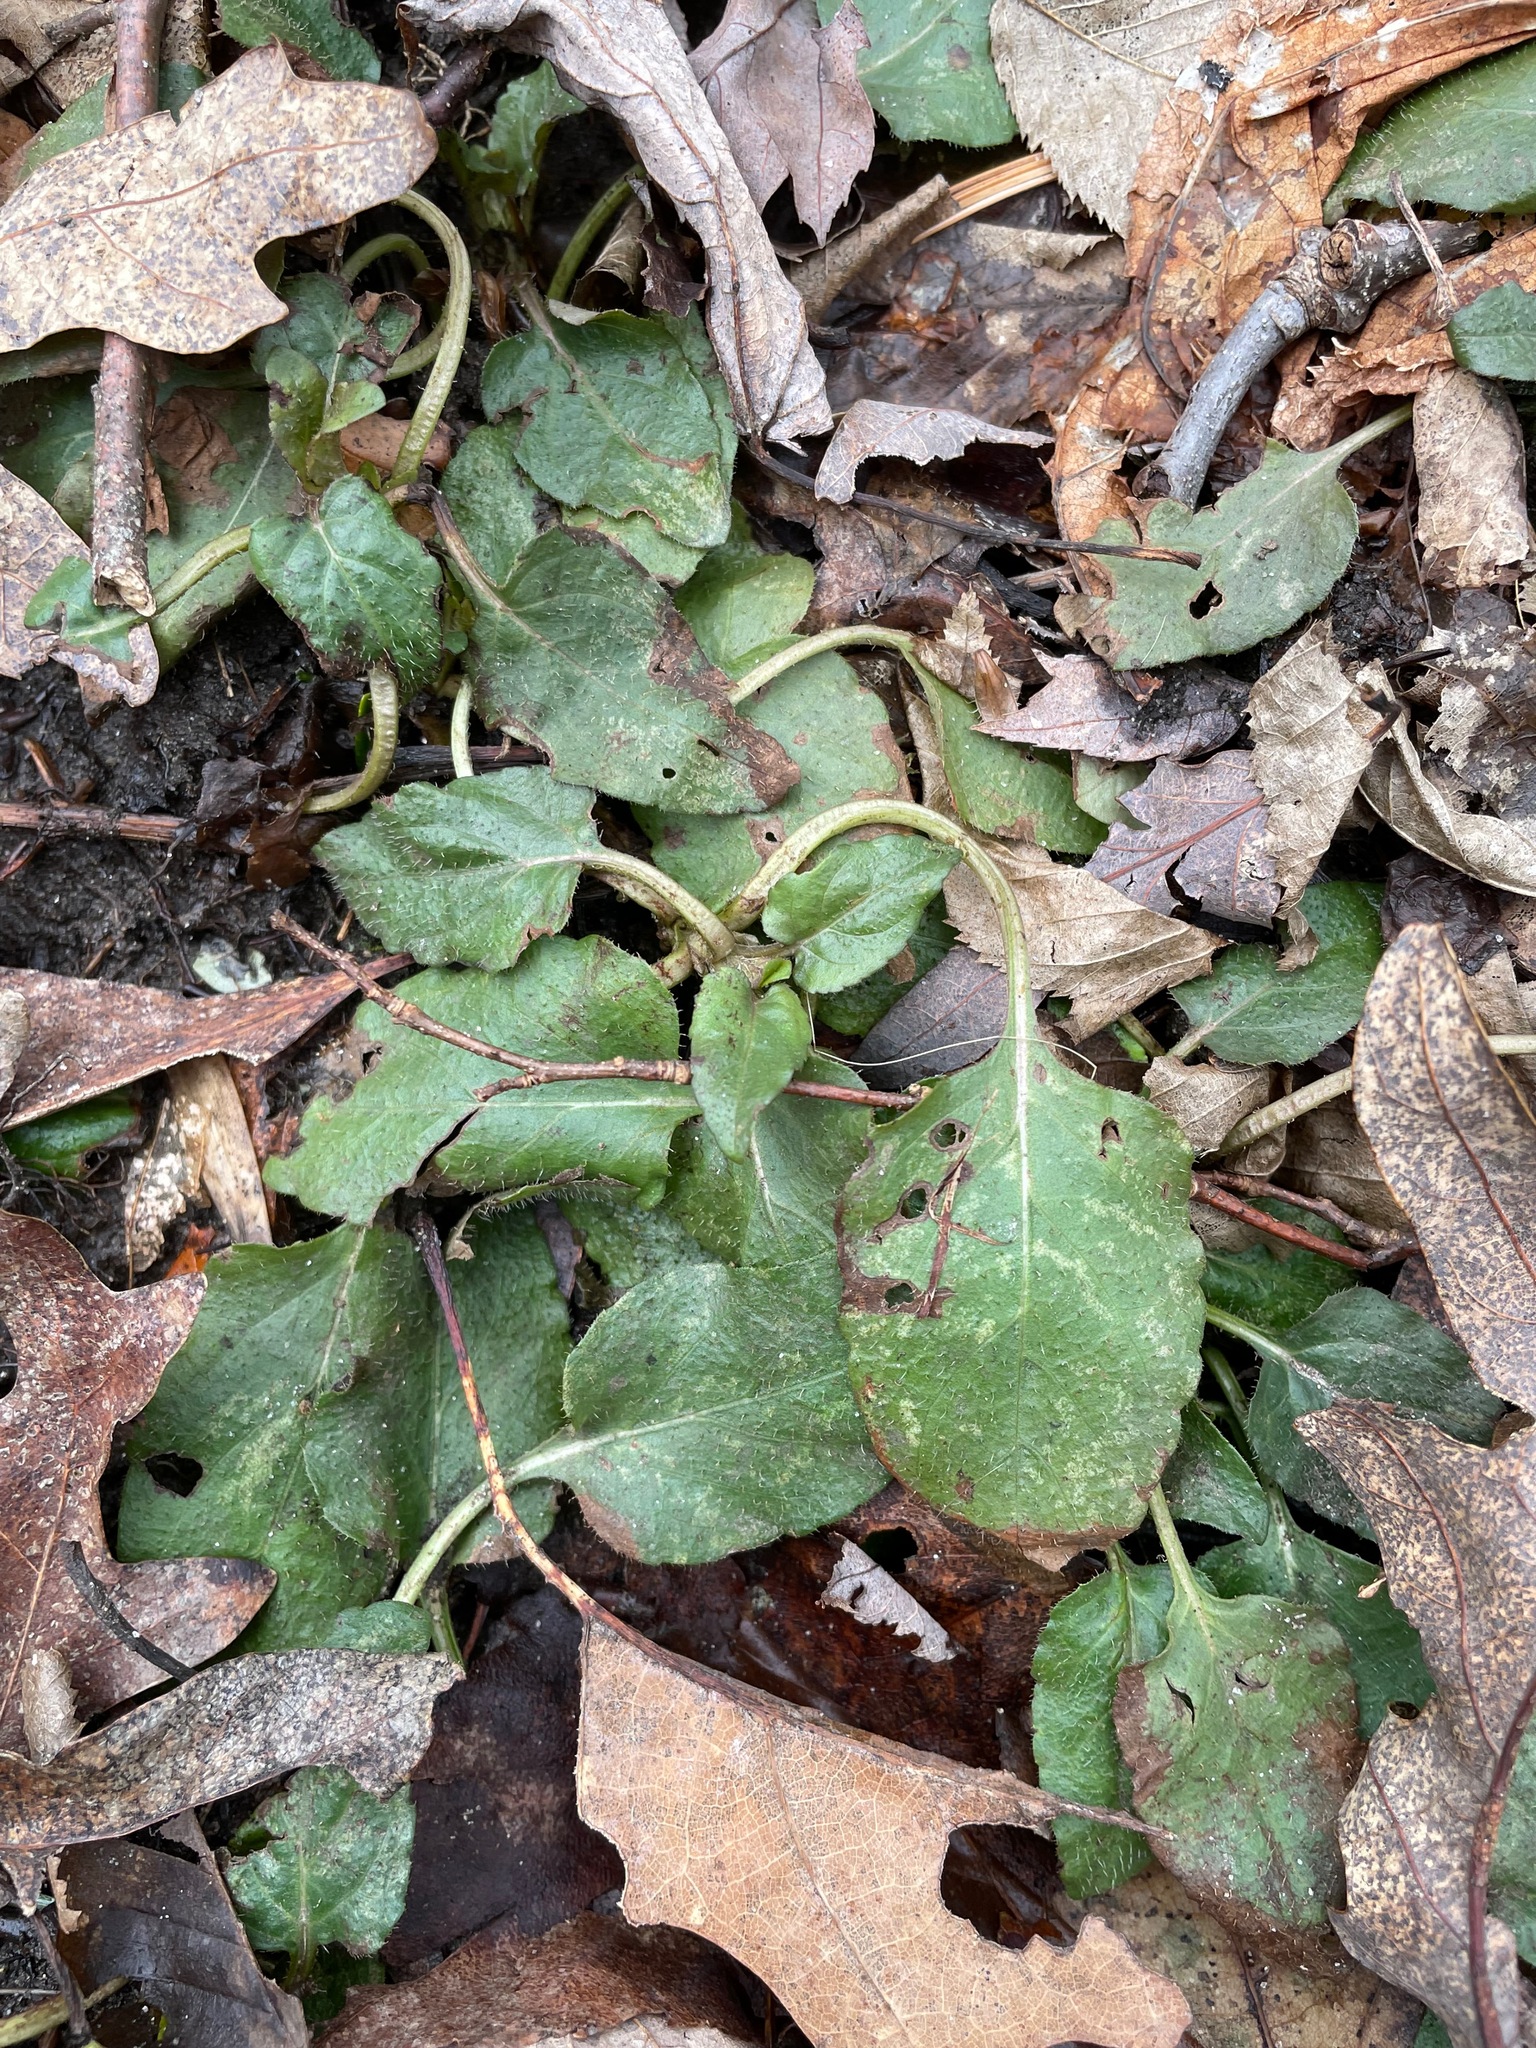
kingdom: Plantae
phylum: Tracheophyta
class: Magnoliopsida
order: Lamiales
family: Lamiaceae
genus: Prunella
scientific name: Prunella vulgaris
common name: Heal-all
